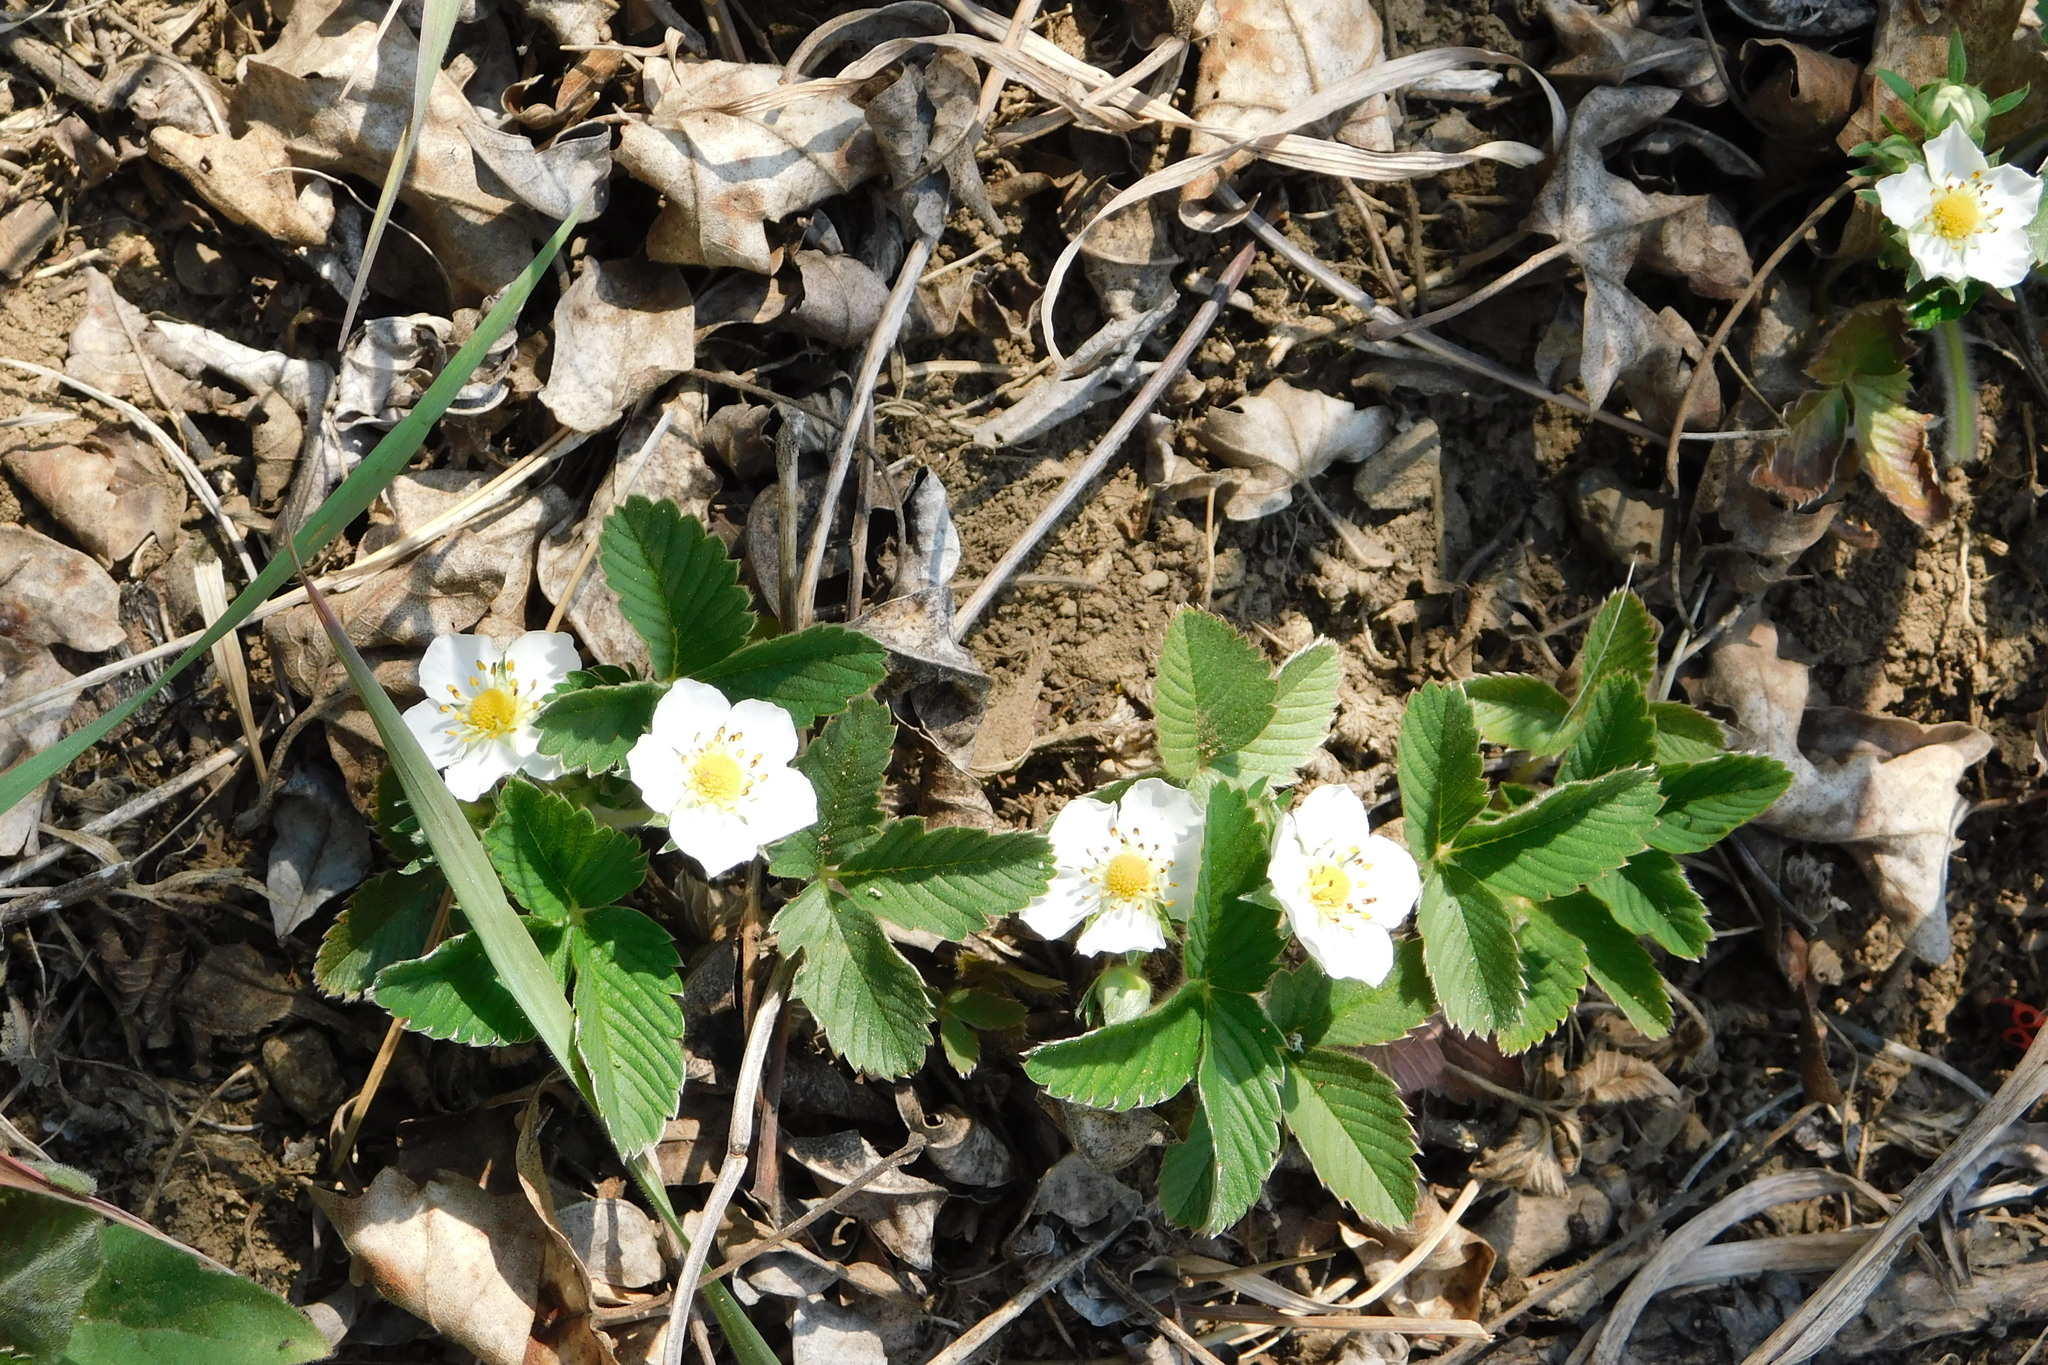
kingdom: Plantae
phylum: Tracheophyta
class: Magnoliopsida
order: Rosales
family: Rosaceae
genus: Fragaria
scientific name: Fragaria viridis
